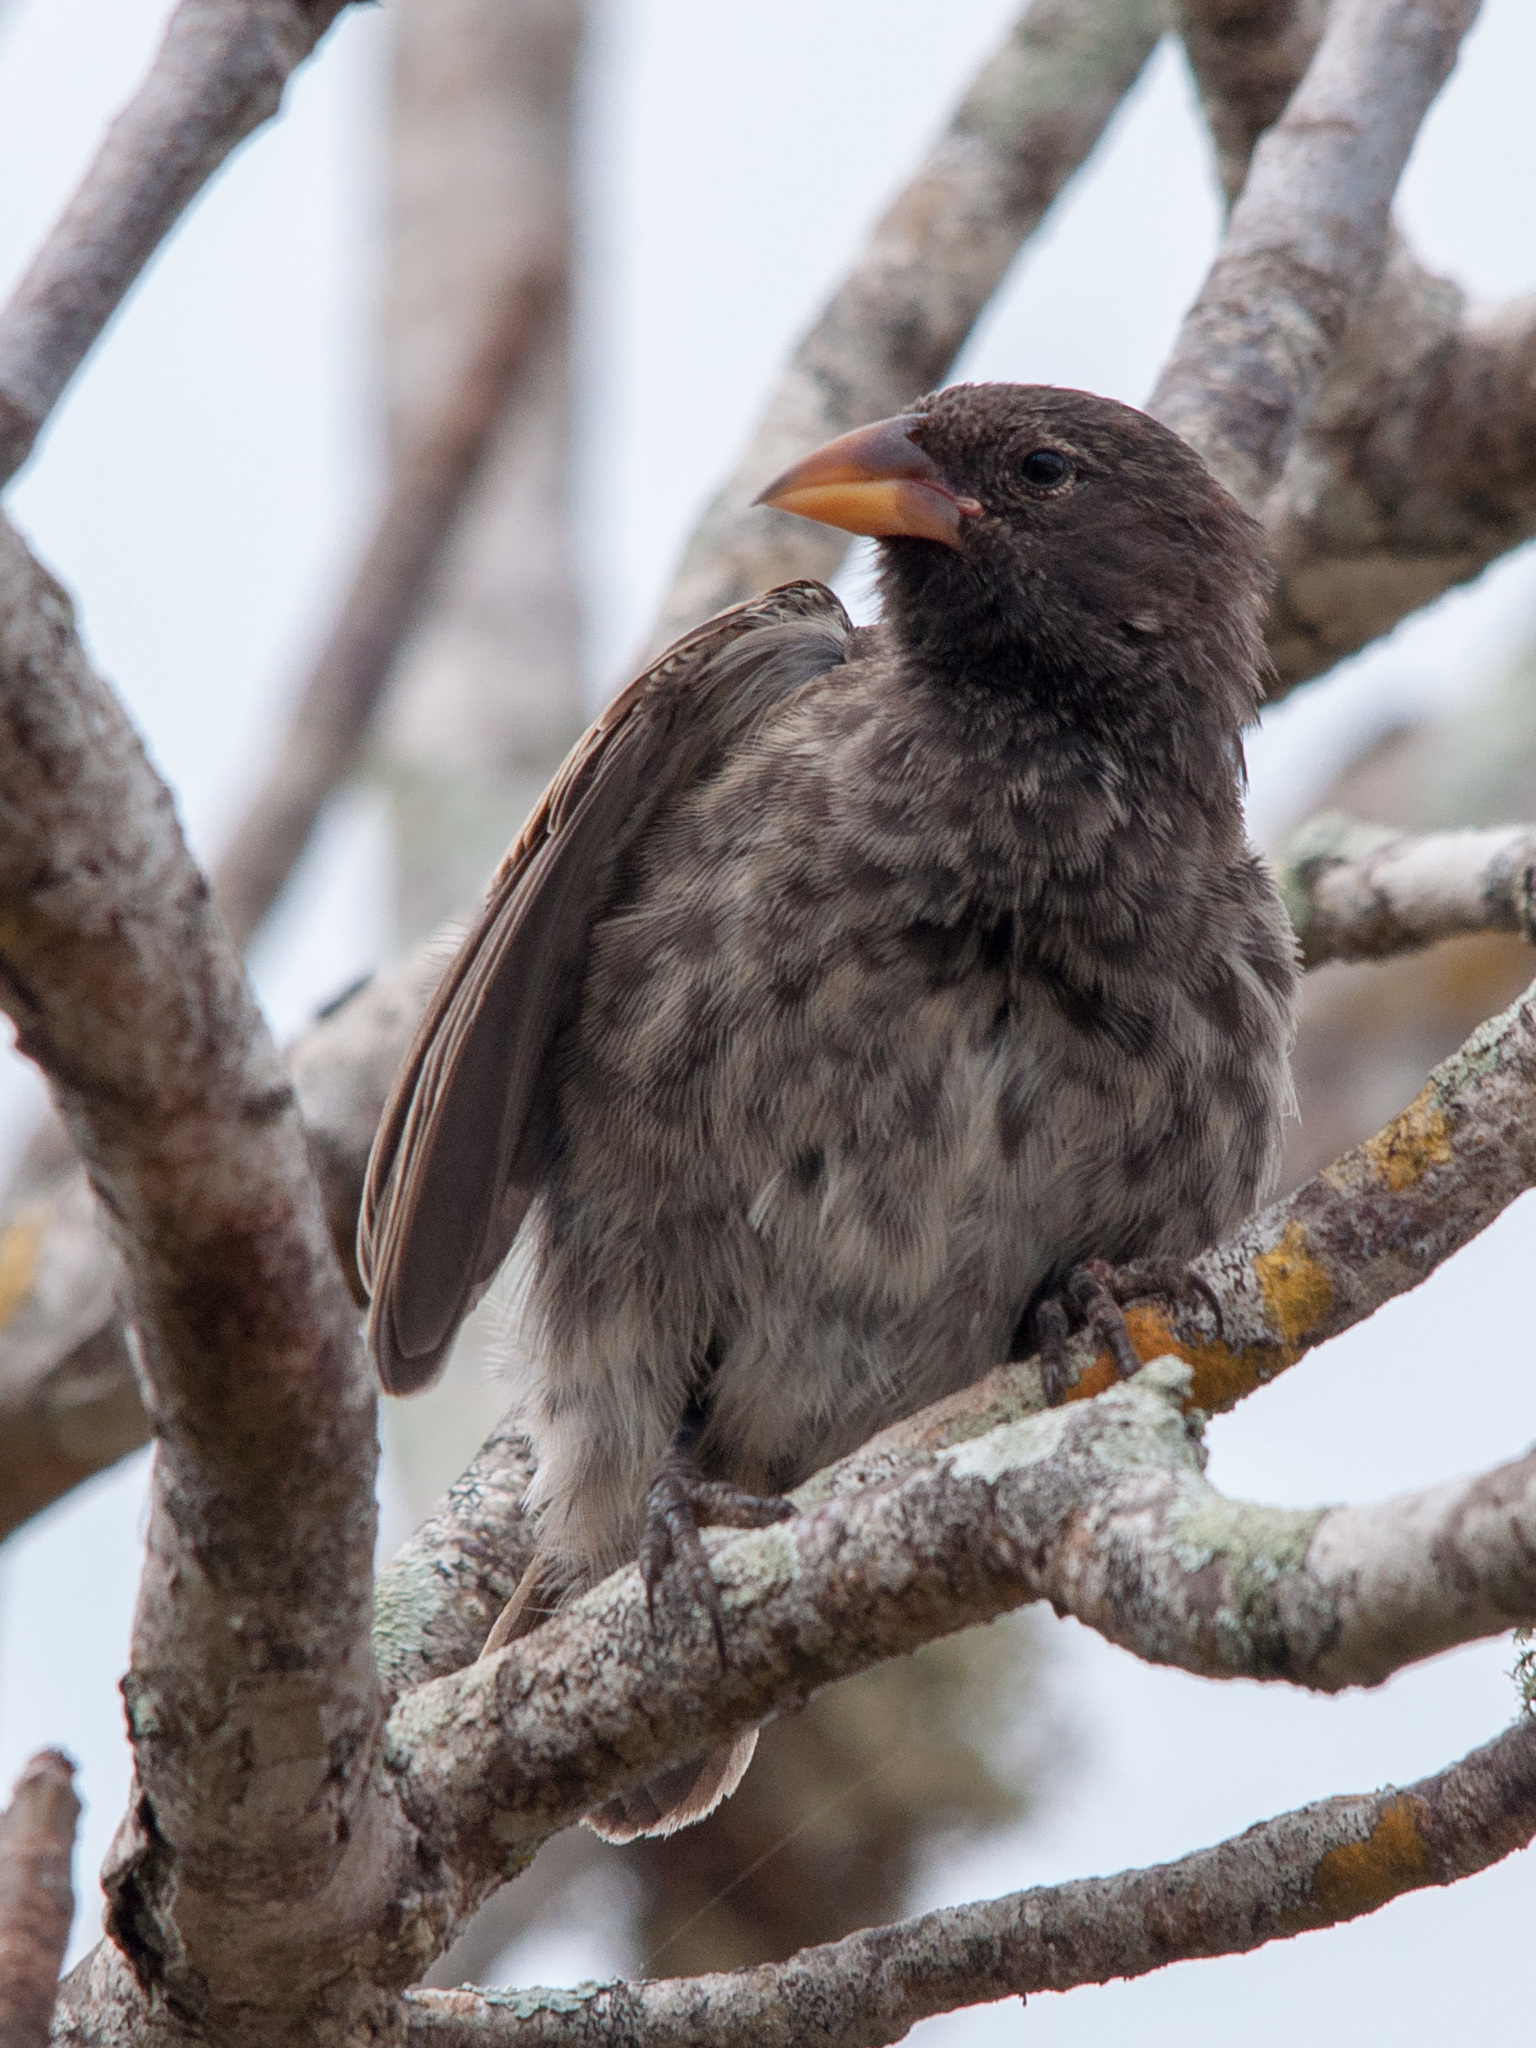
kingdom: Animalia
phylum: Chordata
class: Aves
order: Passeriformes
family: Thraupidae
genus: Geospiza
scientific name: Geospiza scandens
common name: Common cactus-finch
